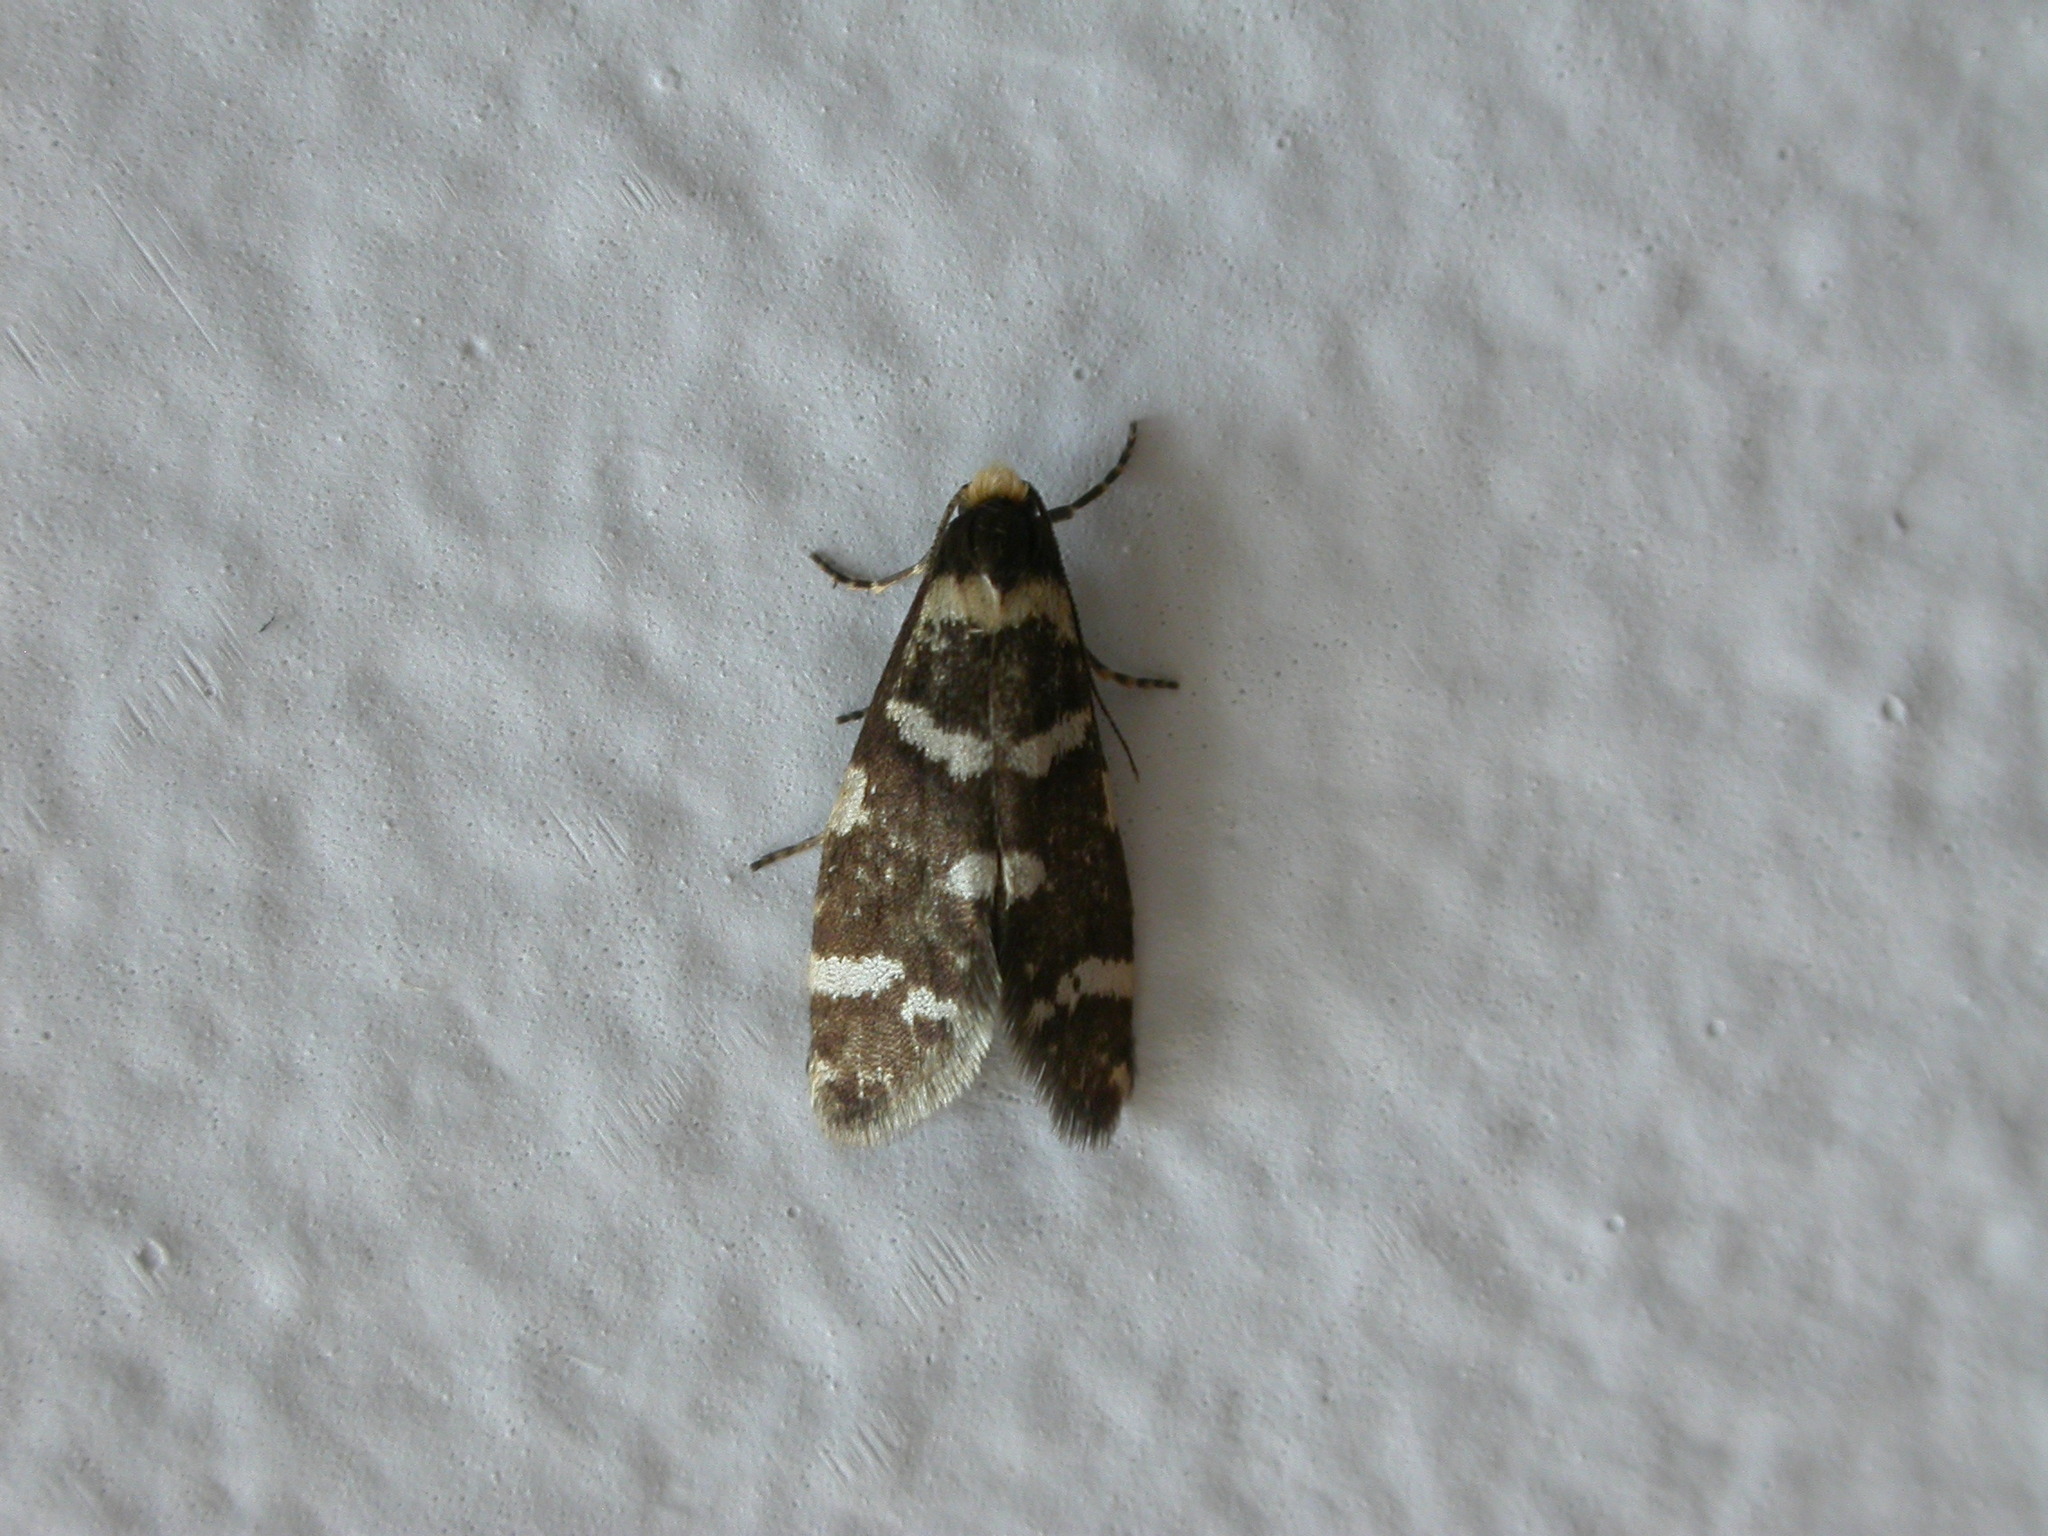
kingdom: Animalia
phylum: Arthropoda
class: Insecta
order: Lepidoptera
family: Psychidae
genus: Lepidoscia
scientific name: Lepidoscia confluens
